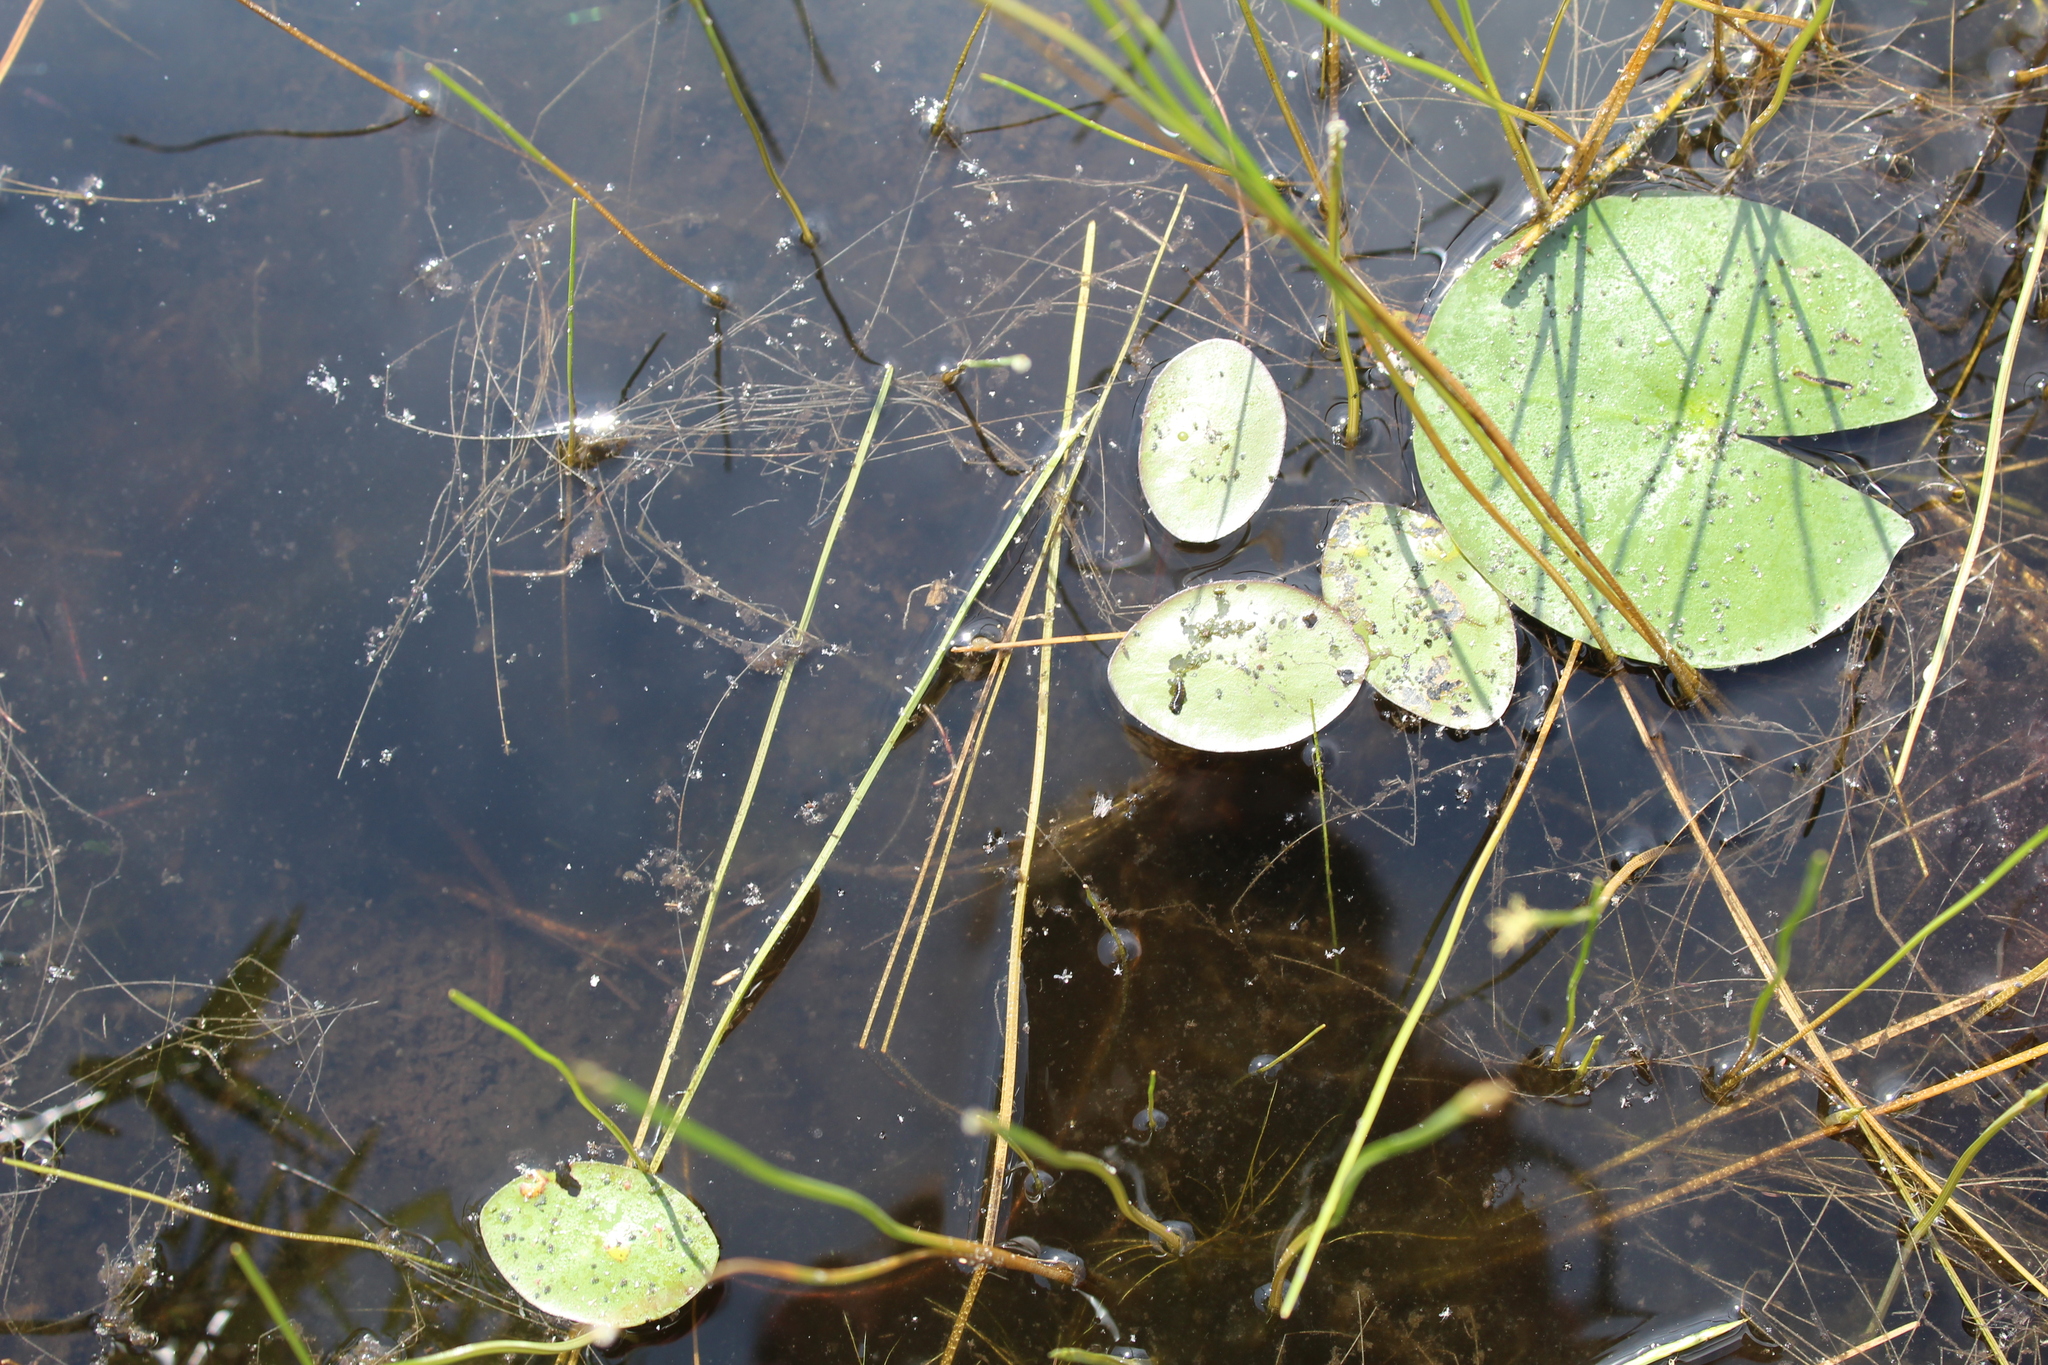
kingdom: Plantae
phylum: Tracheophyta
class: Magnoliopsida
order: Nymphaeales
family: Cabombaceae
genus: Brasenia
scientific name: Brasenia schreberi
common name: Water-shield
